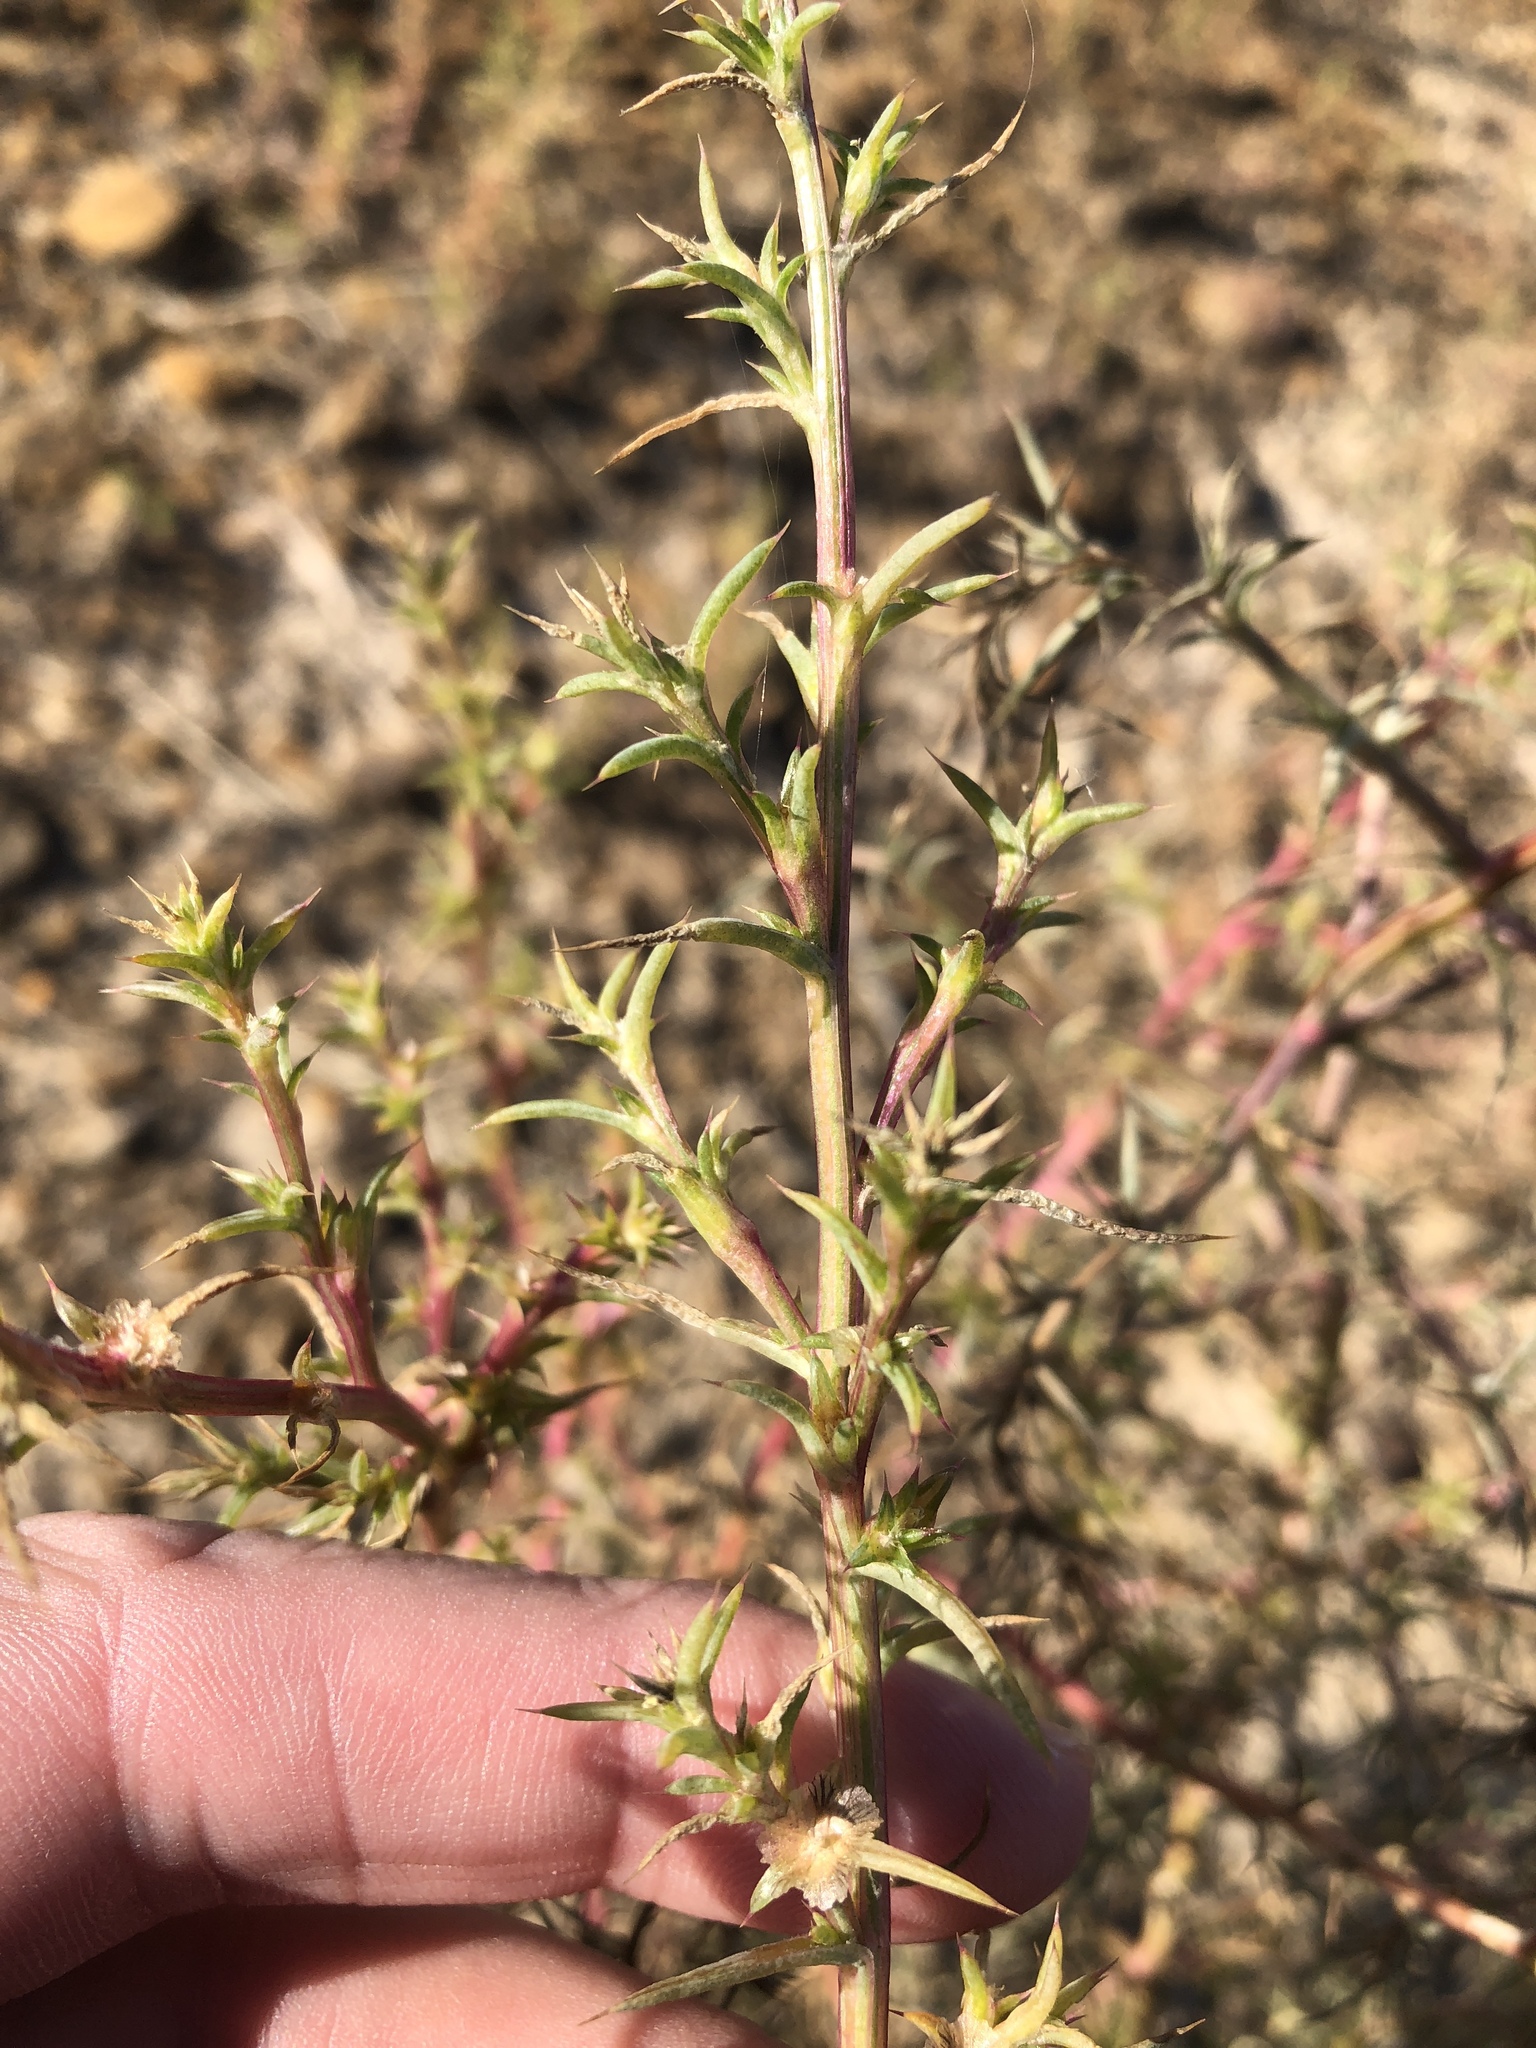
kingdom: Plantae
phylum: Tracheophyta
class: Magnoliopsida
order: Caryophyllales
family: Amaranthaceae
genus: Salsola
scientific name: Salsola tragus
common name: Prickly russian thistle
